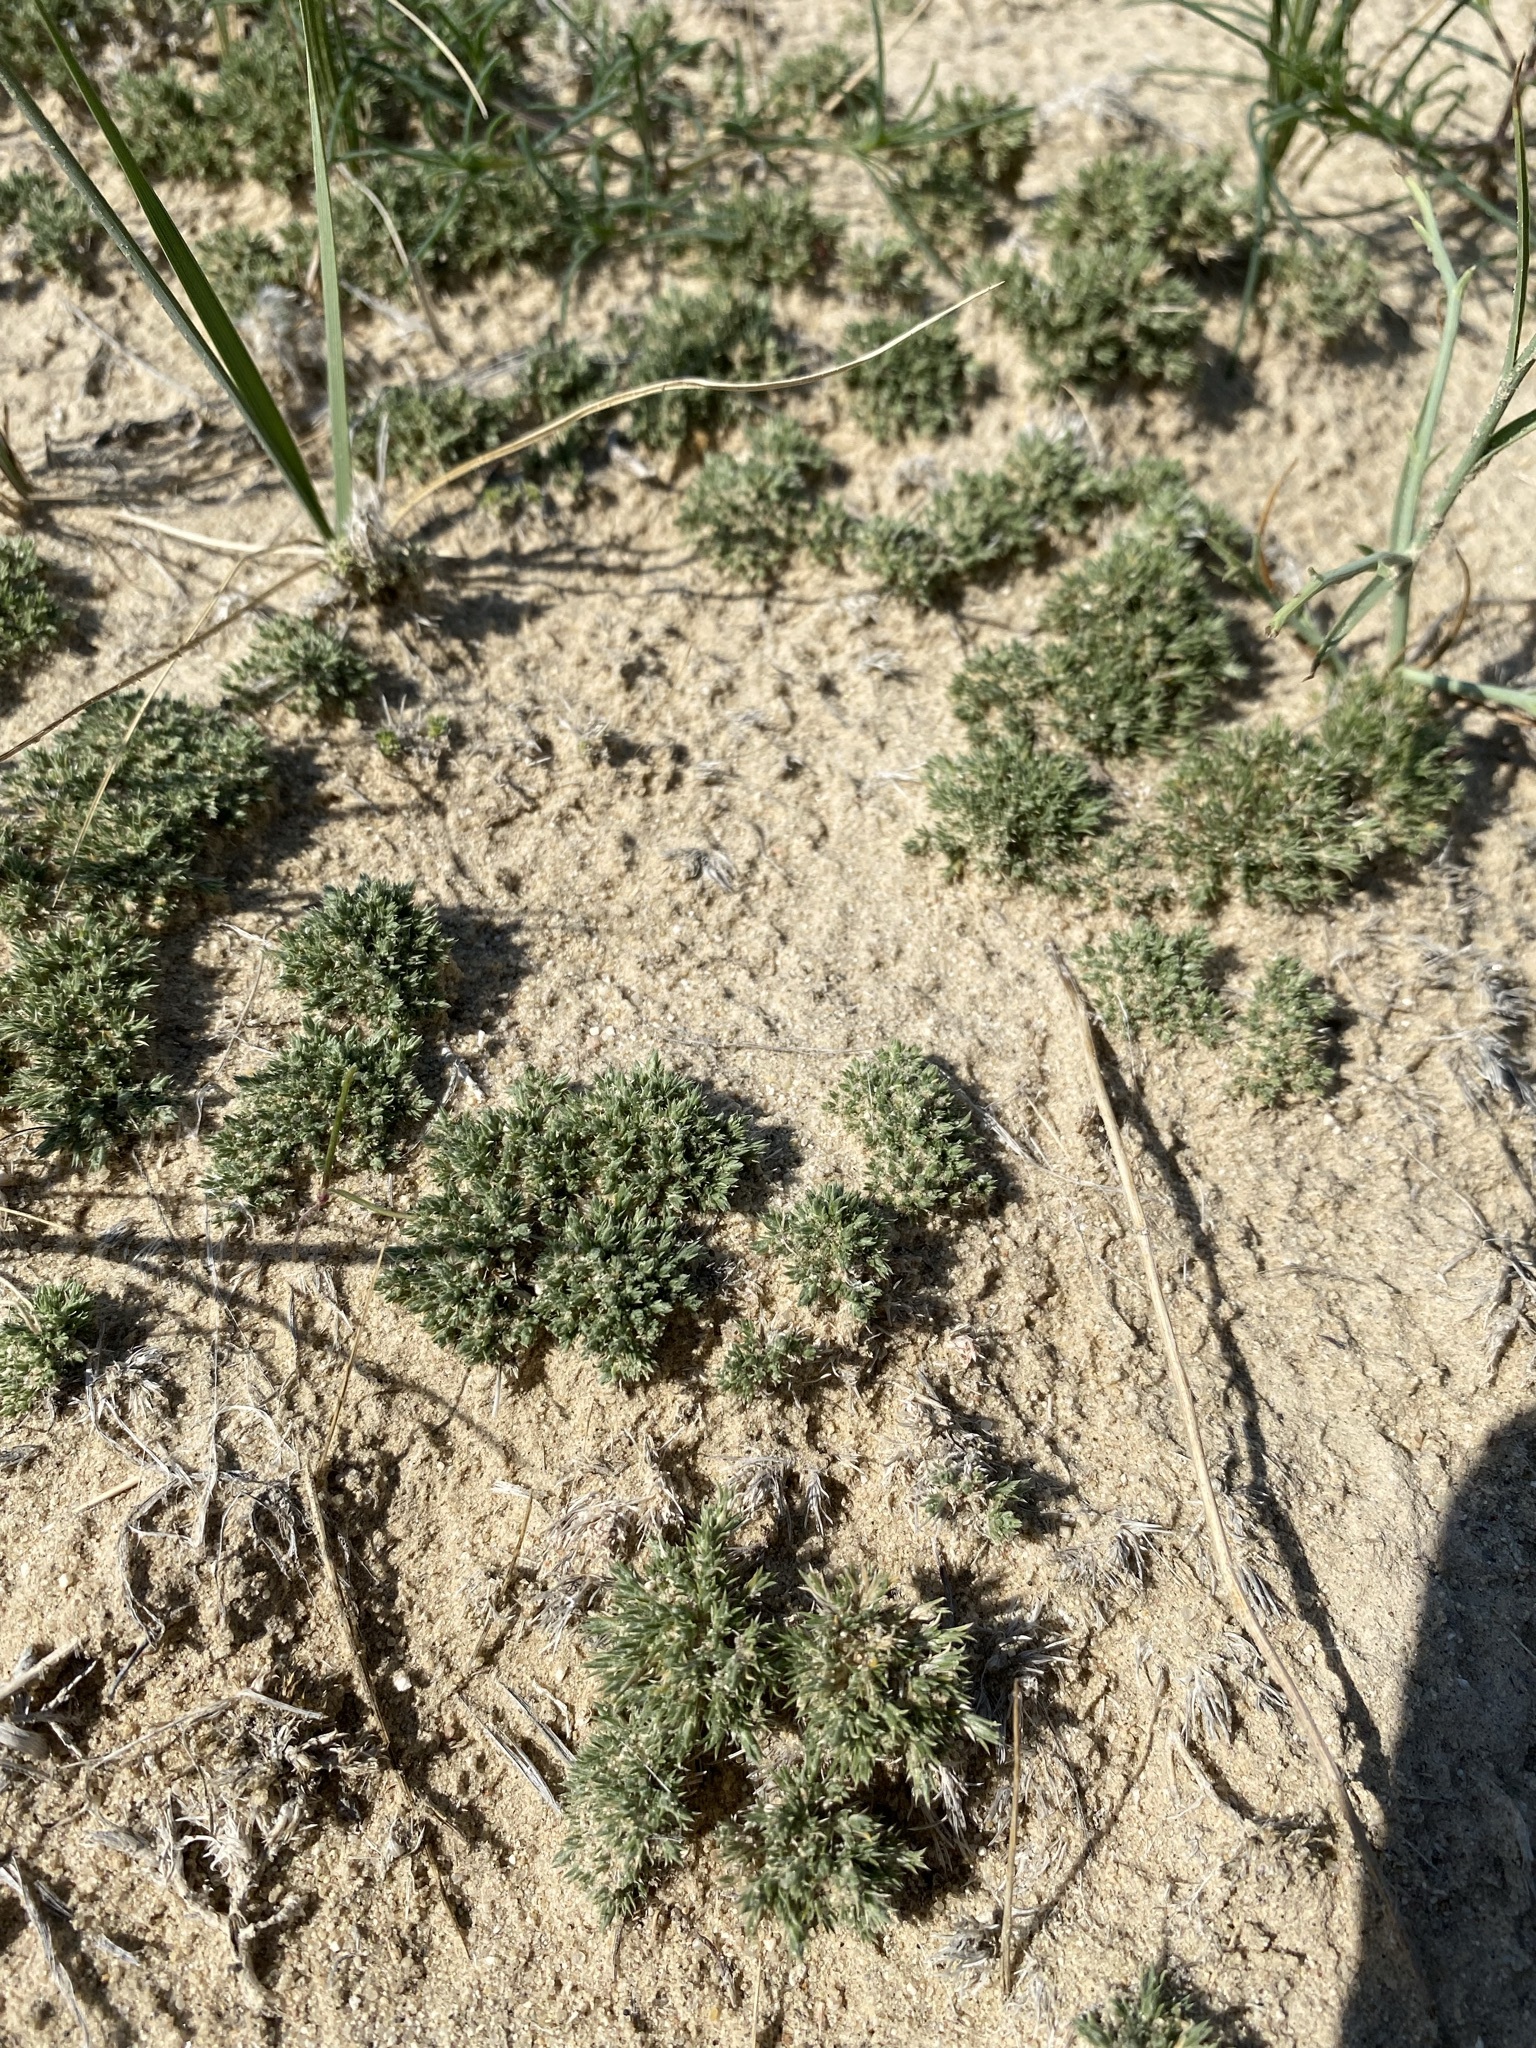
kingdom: Plantae
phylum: Tracheophyta
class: Magnoliopsida
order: Caryophyllales
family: Caryophyllaceae
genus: Eremogone
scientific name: Eremogone hookeri
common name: Hooker's sandwort
